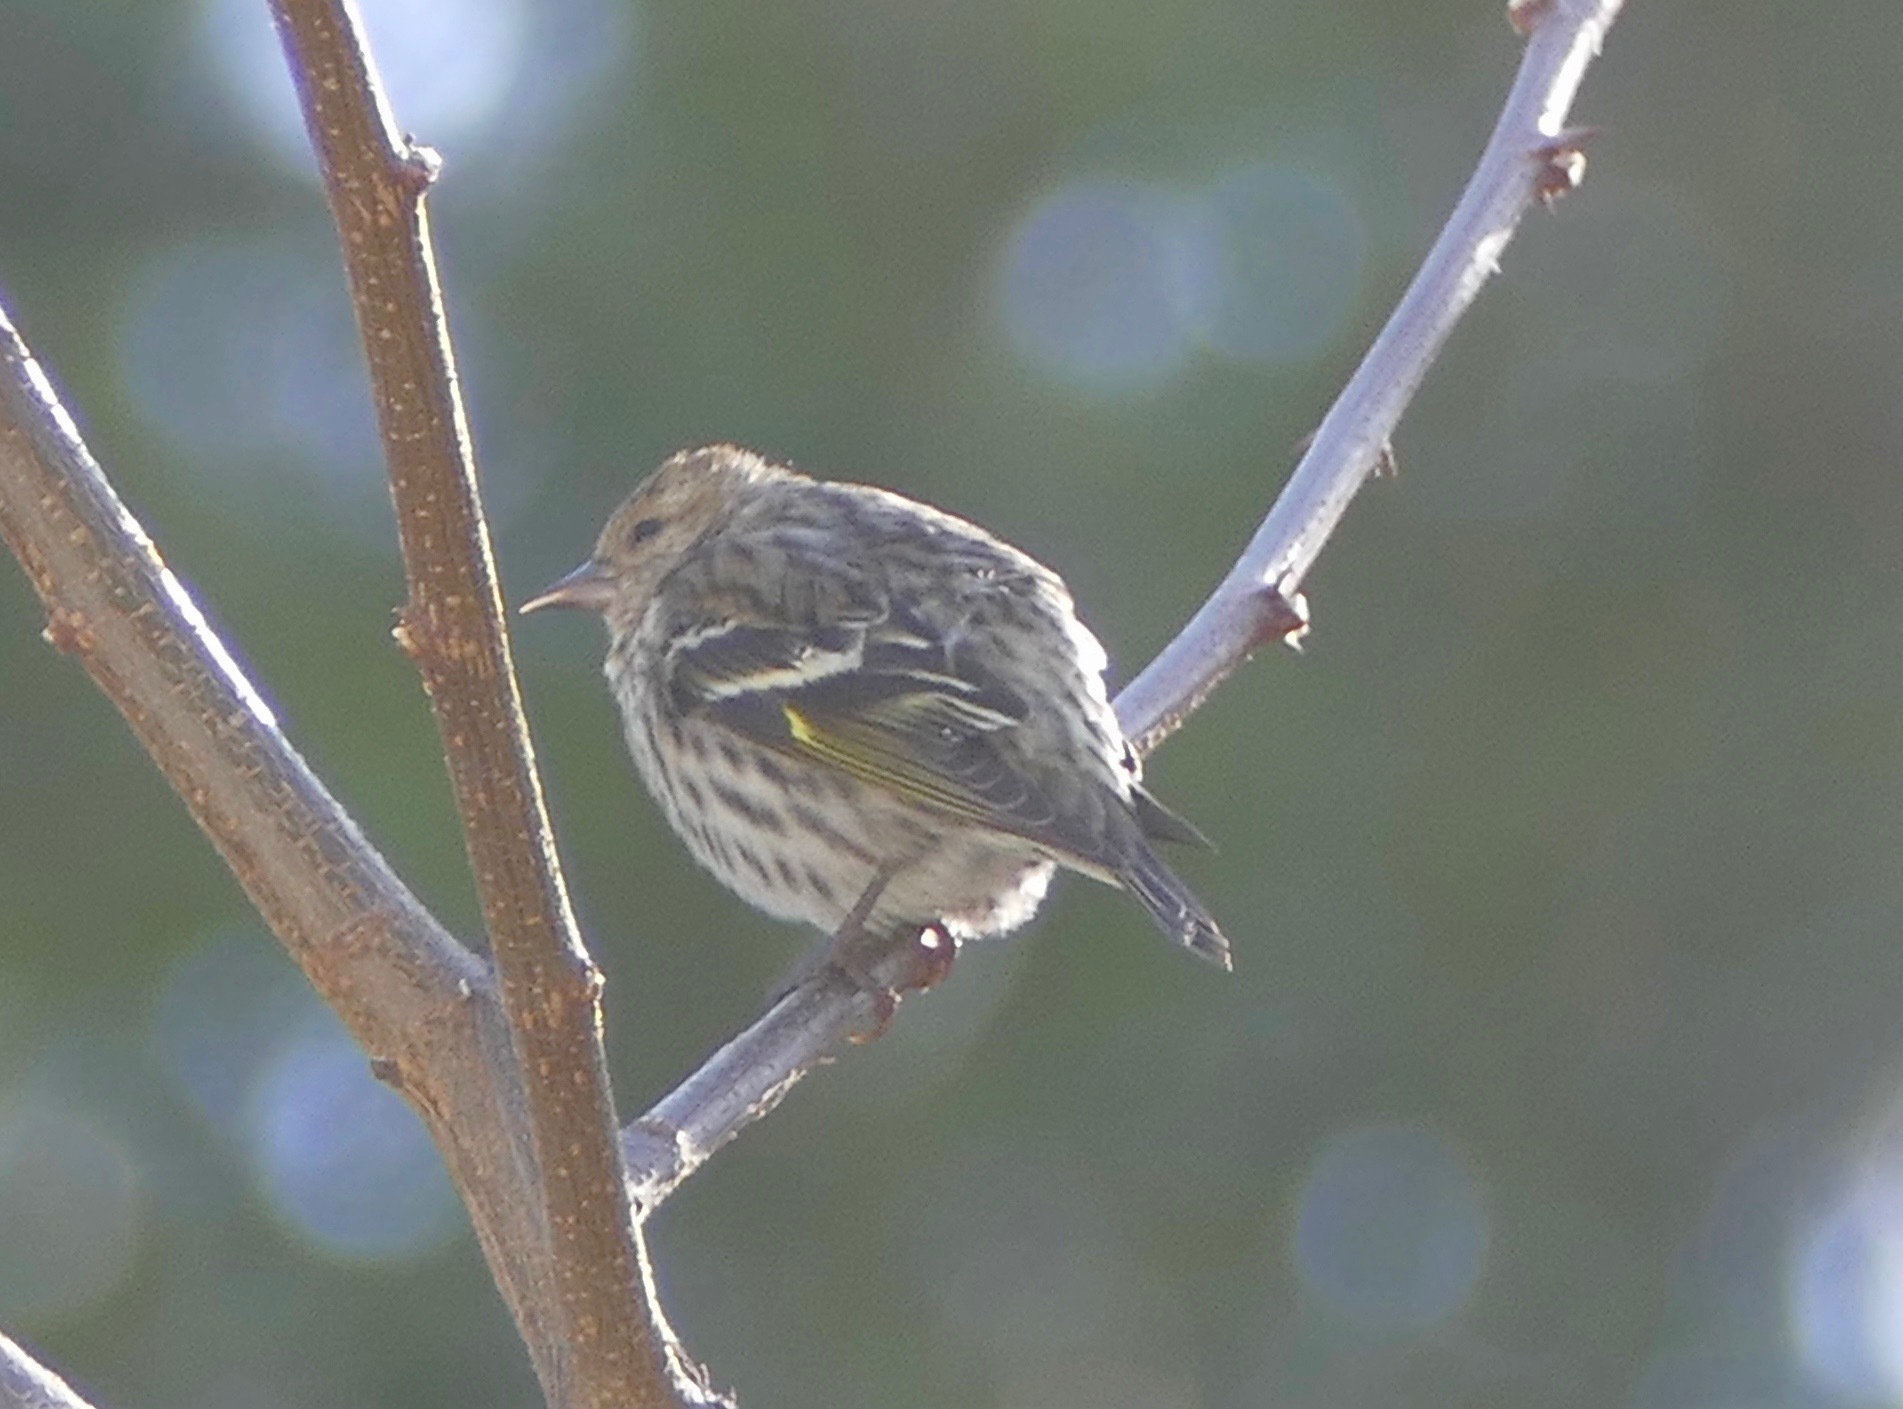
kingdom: Animalia
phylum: Chordata
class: Aves
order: Passeriformes
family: Fringillidae
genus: Spinus
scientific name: Spinus pinus
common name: Pine siskin
